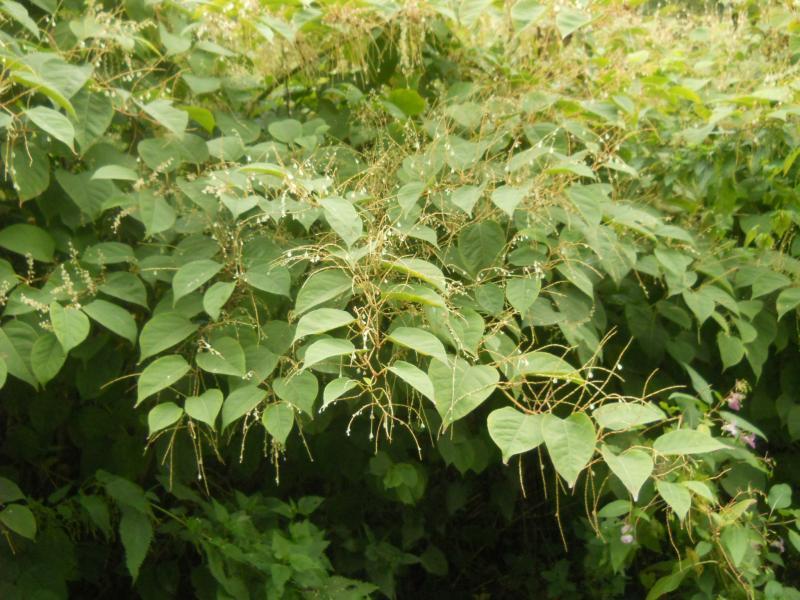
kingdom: Plantae
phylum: Tracheophyta
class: Magnoliopsida
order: Caryophyllales
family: Polygonaceae
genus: Reynoutria
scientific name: Reynoutria japonica
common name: Japanese knotweed
